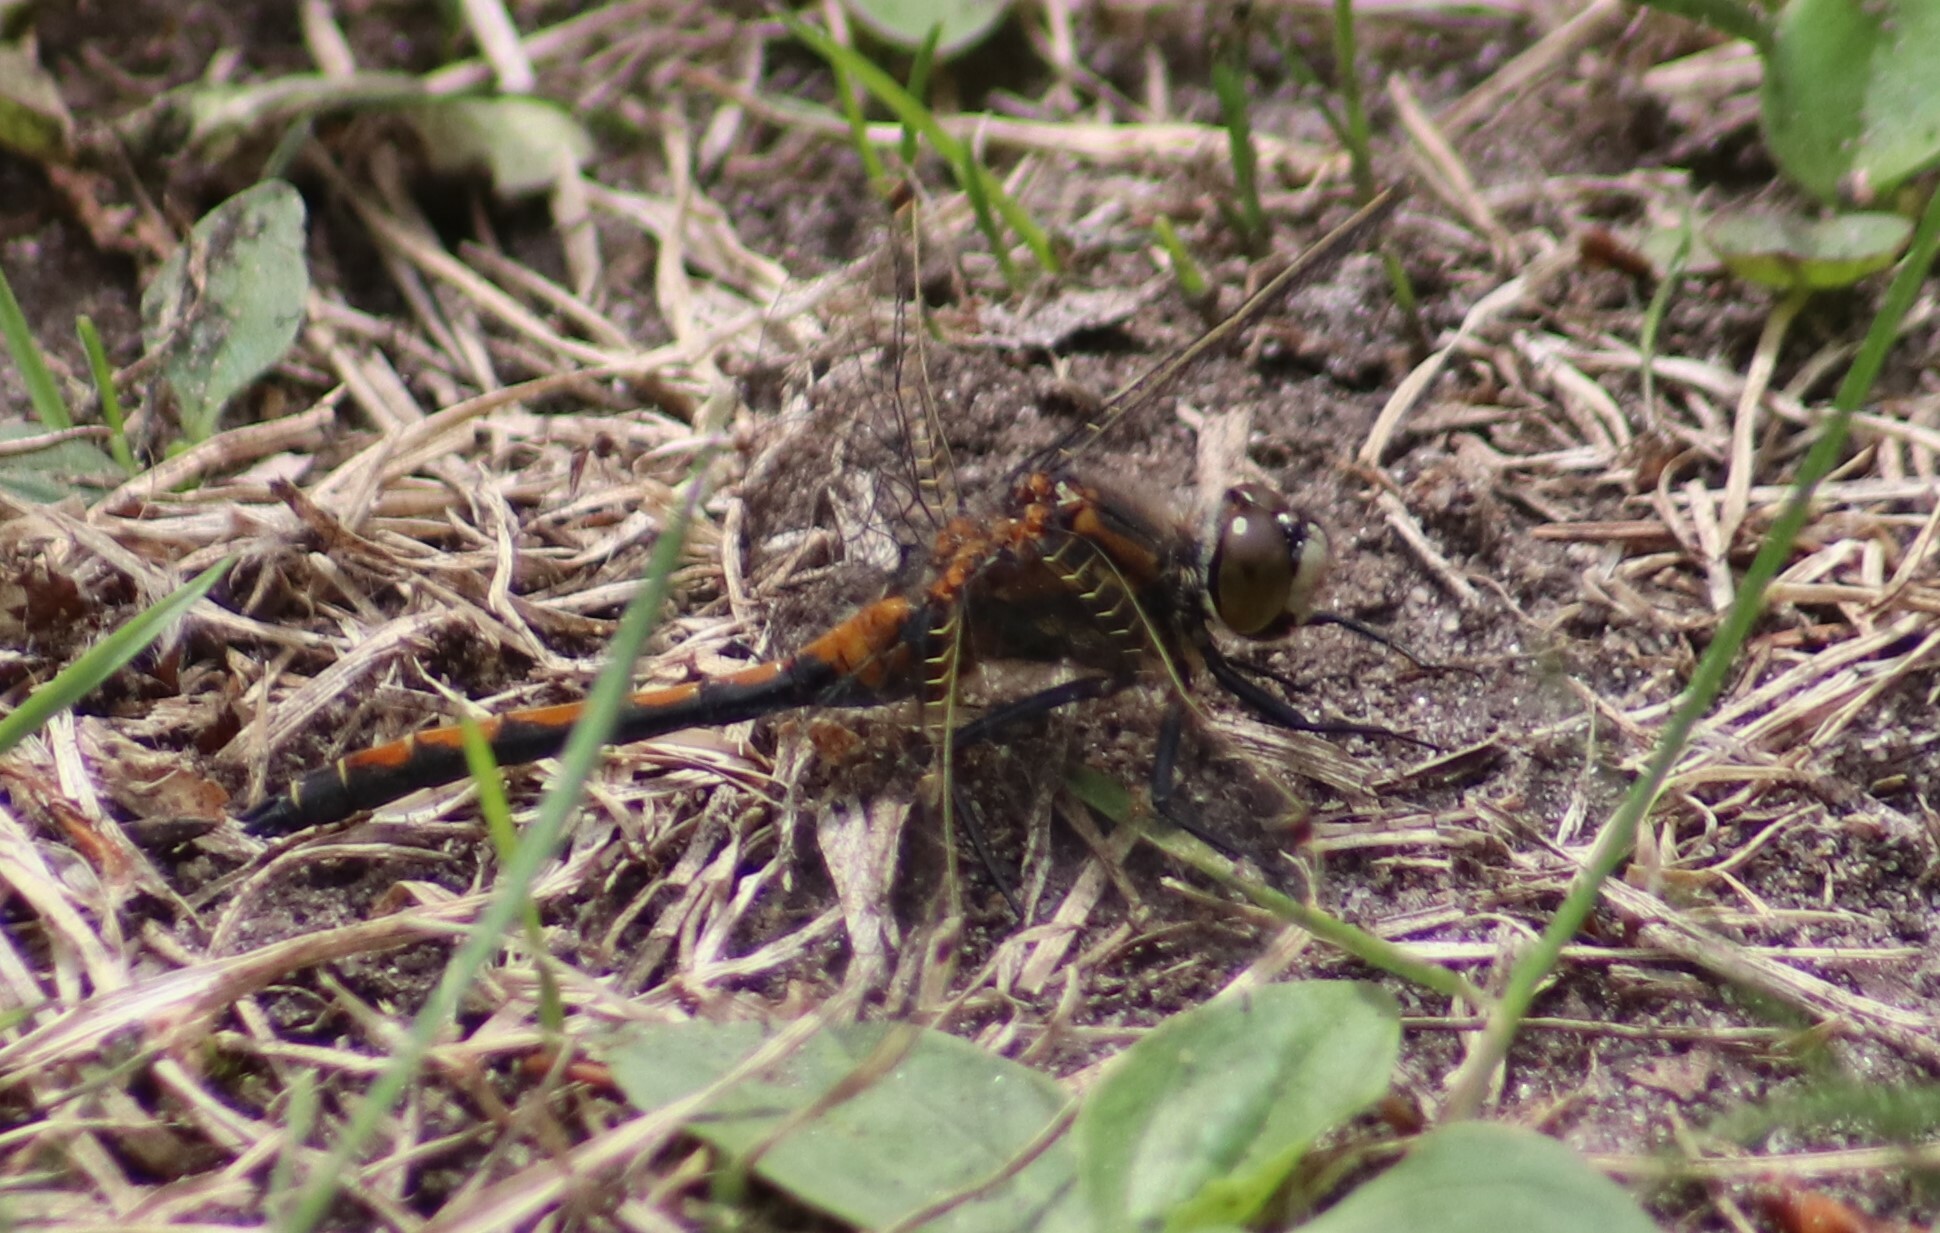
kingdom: Animalia
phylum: Arthropoda
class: Insecta
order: Odonata
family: Libellulidae
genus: Leucorrhinia
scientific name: Leucorrhinia borealis
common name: Boreal whiteface
